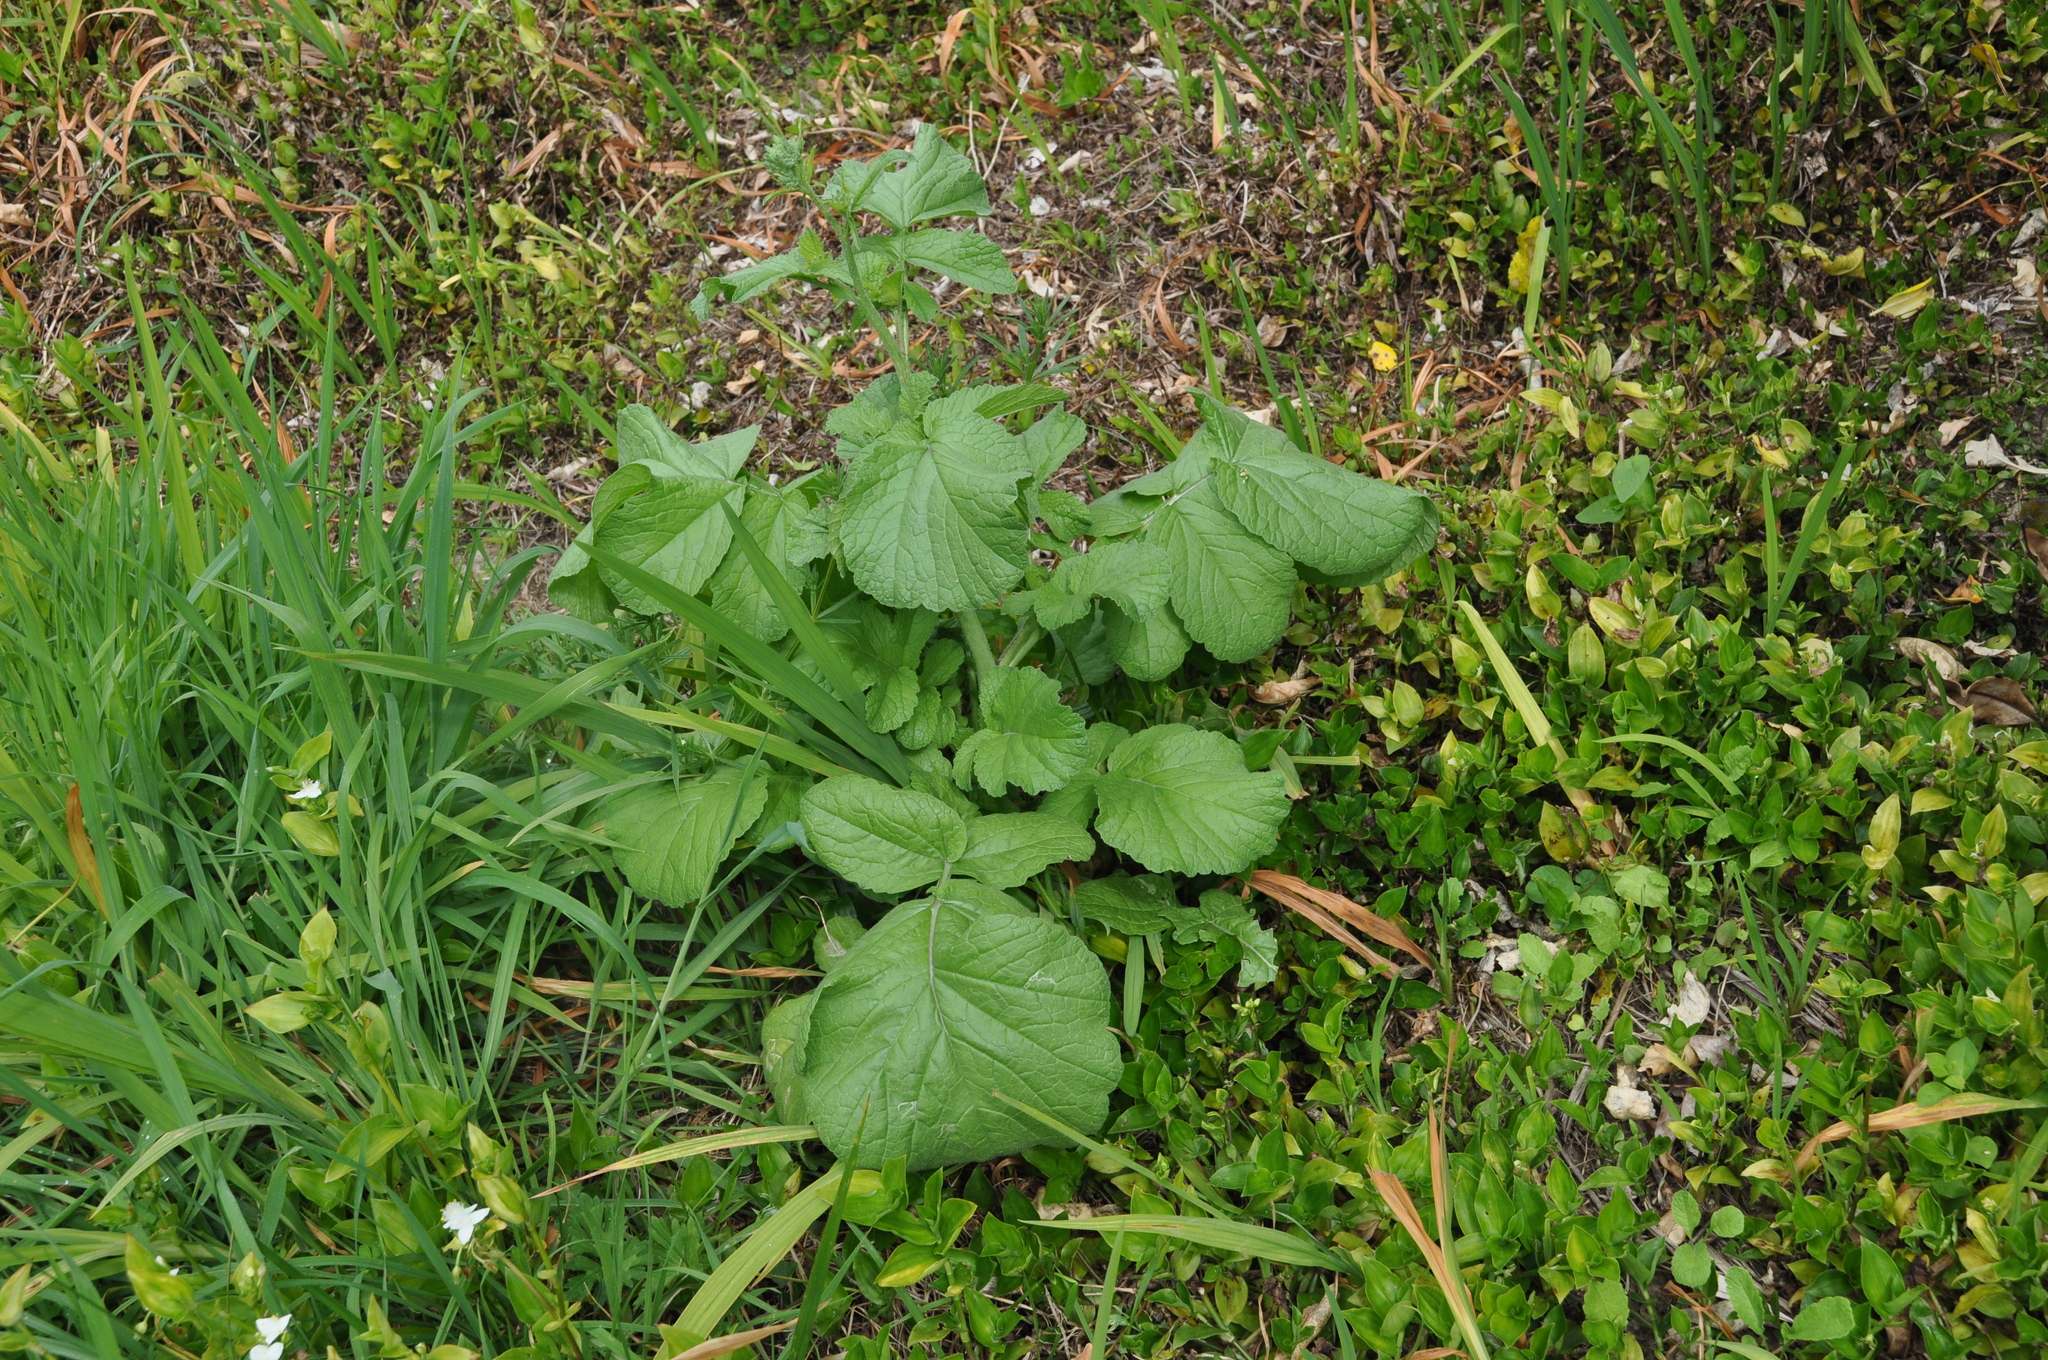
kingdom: Plantae
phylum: Tracheophyta
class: Magnoliopsida
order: Brassicales
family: Brassicaceae
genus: Raphanus
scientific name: Raphanus raphanistrum
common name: Wild radish
